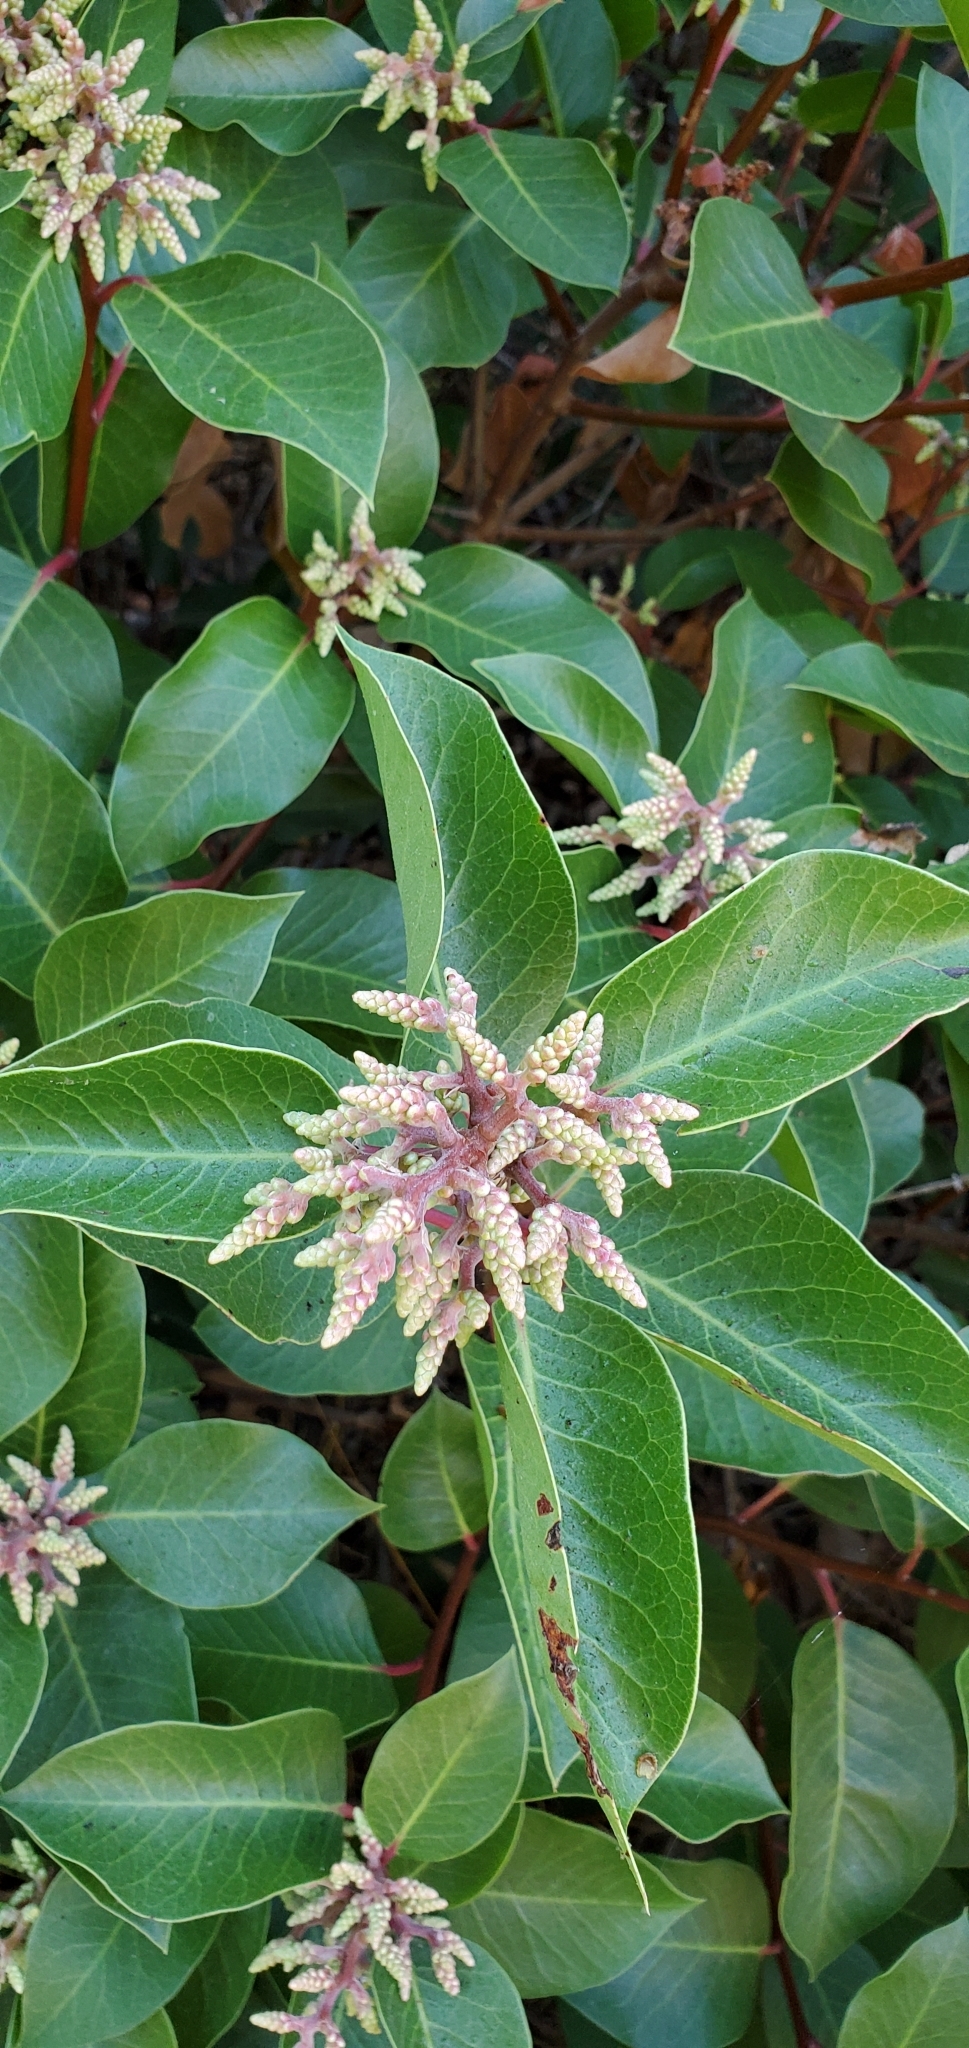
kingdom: Plantae
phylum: Tracheophyta
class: Magnoliopsida
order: Sapindales
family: Anacardiaceae
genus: Rhus
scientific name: Rhus ovata
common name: Sugar sumac
